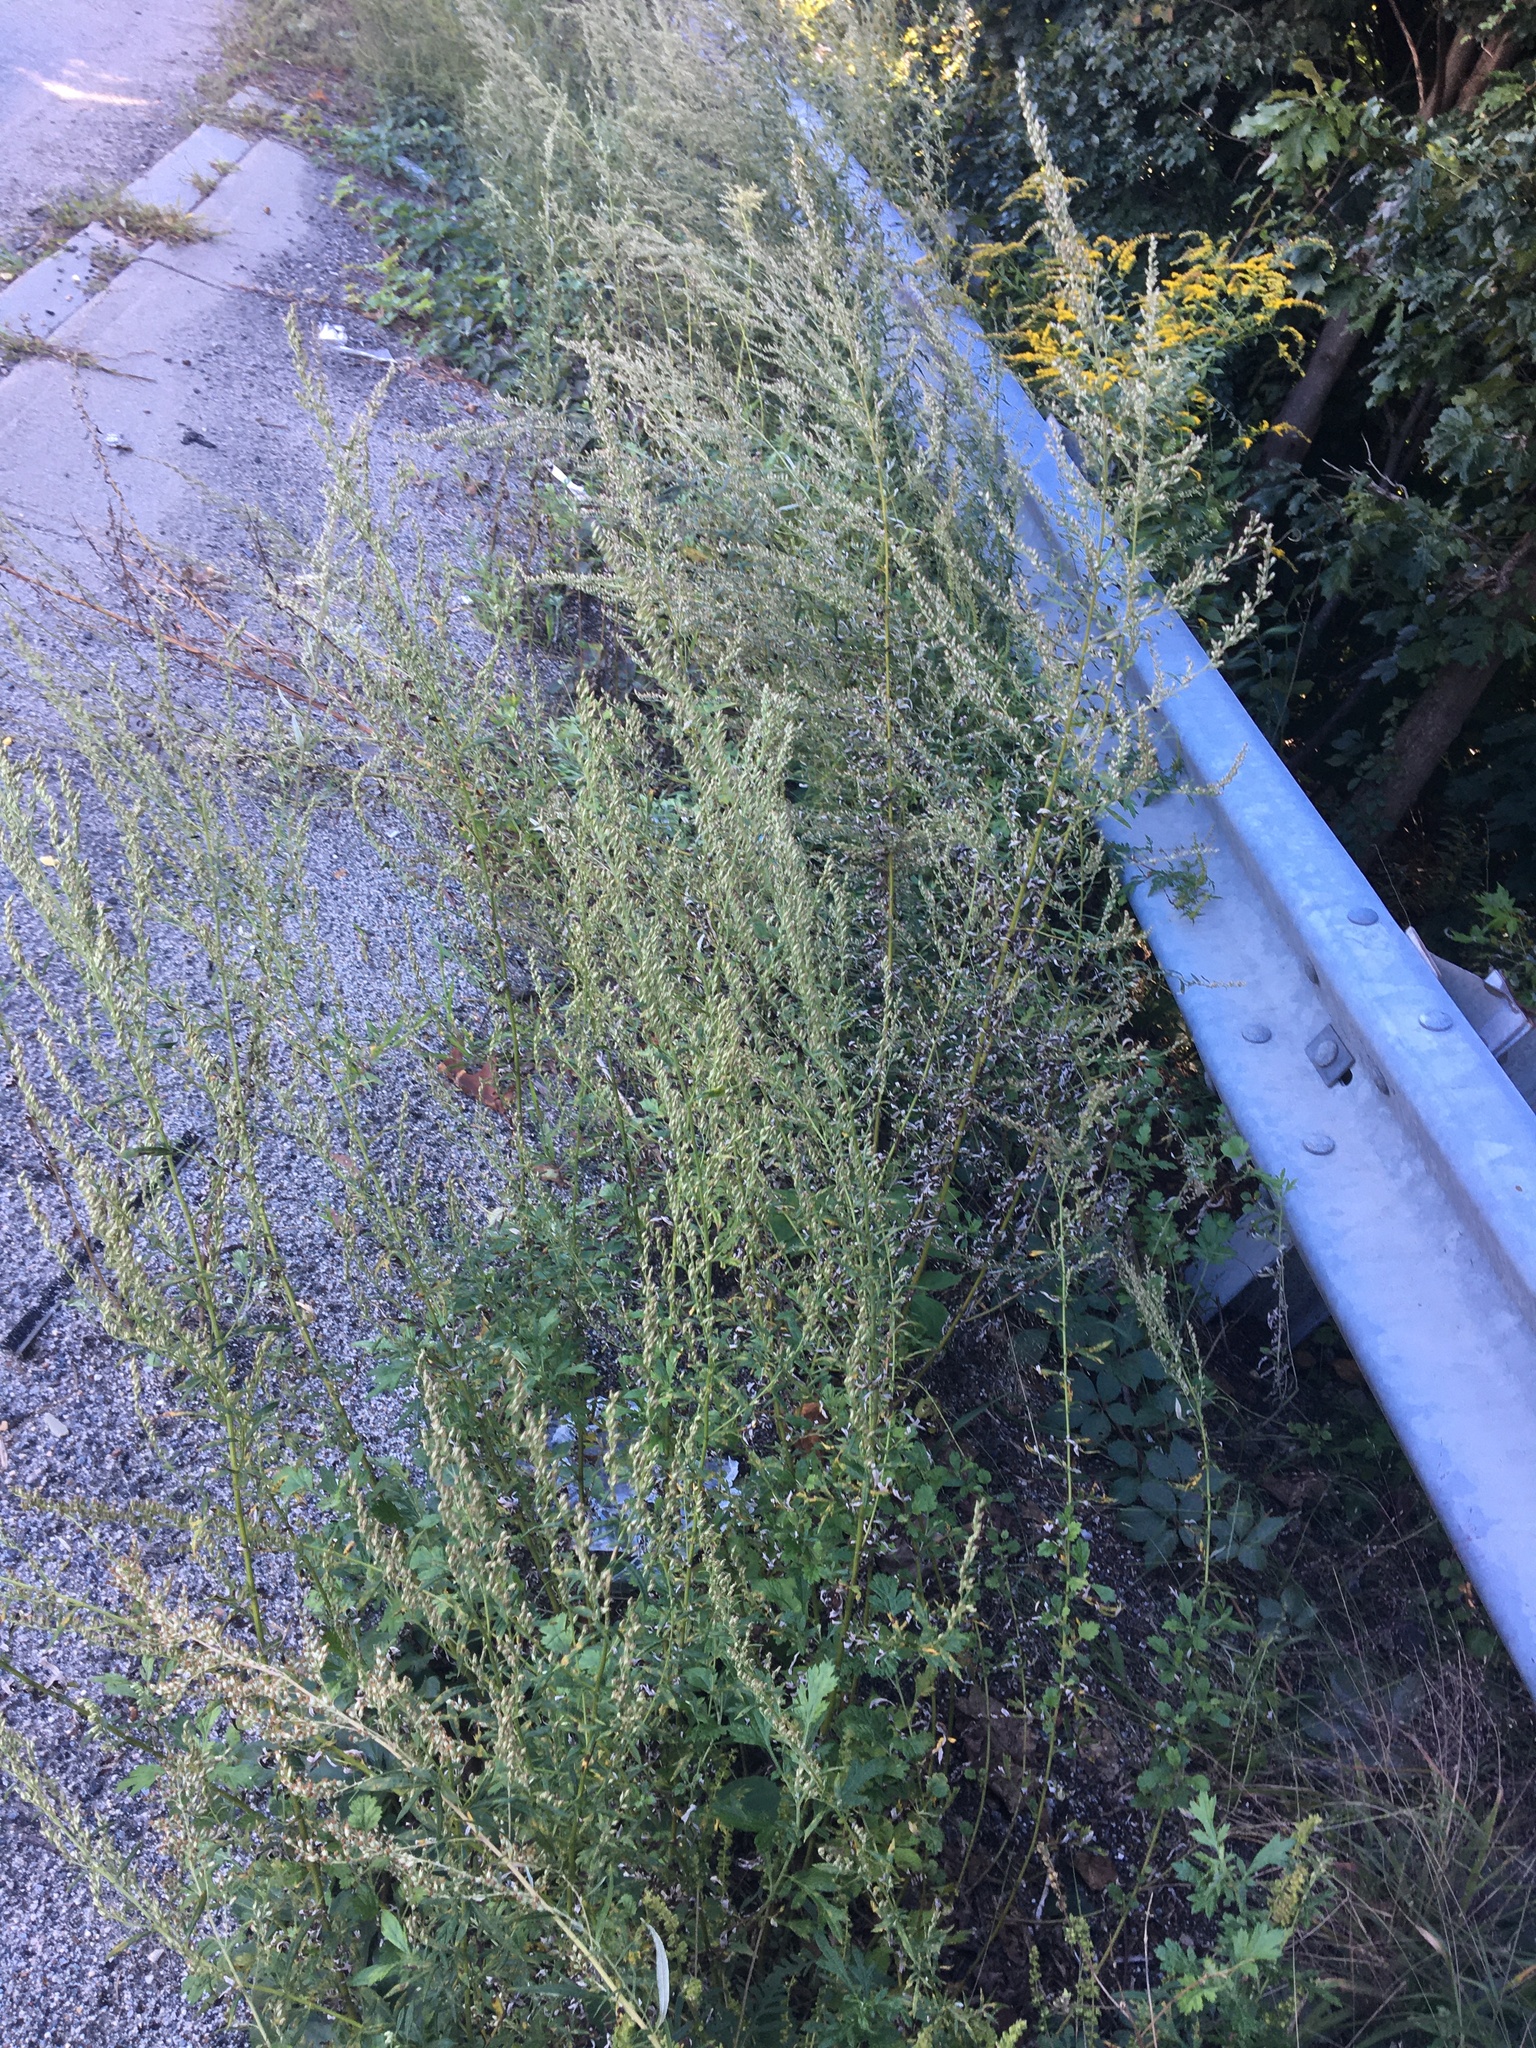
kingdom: Plantae
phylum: Tracheophyta
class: Magnoliopsida
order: Asterales
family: Asteraceae
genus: Artemisia
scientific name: Artemisia vulgaris
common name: Mugwort
